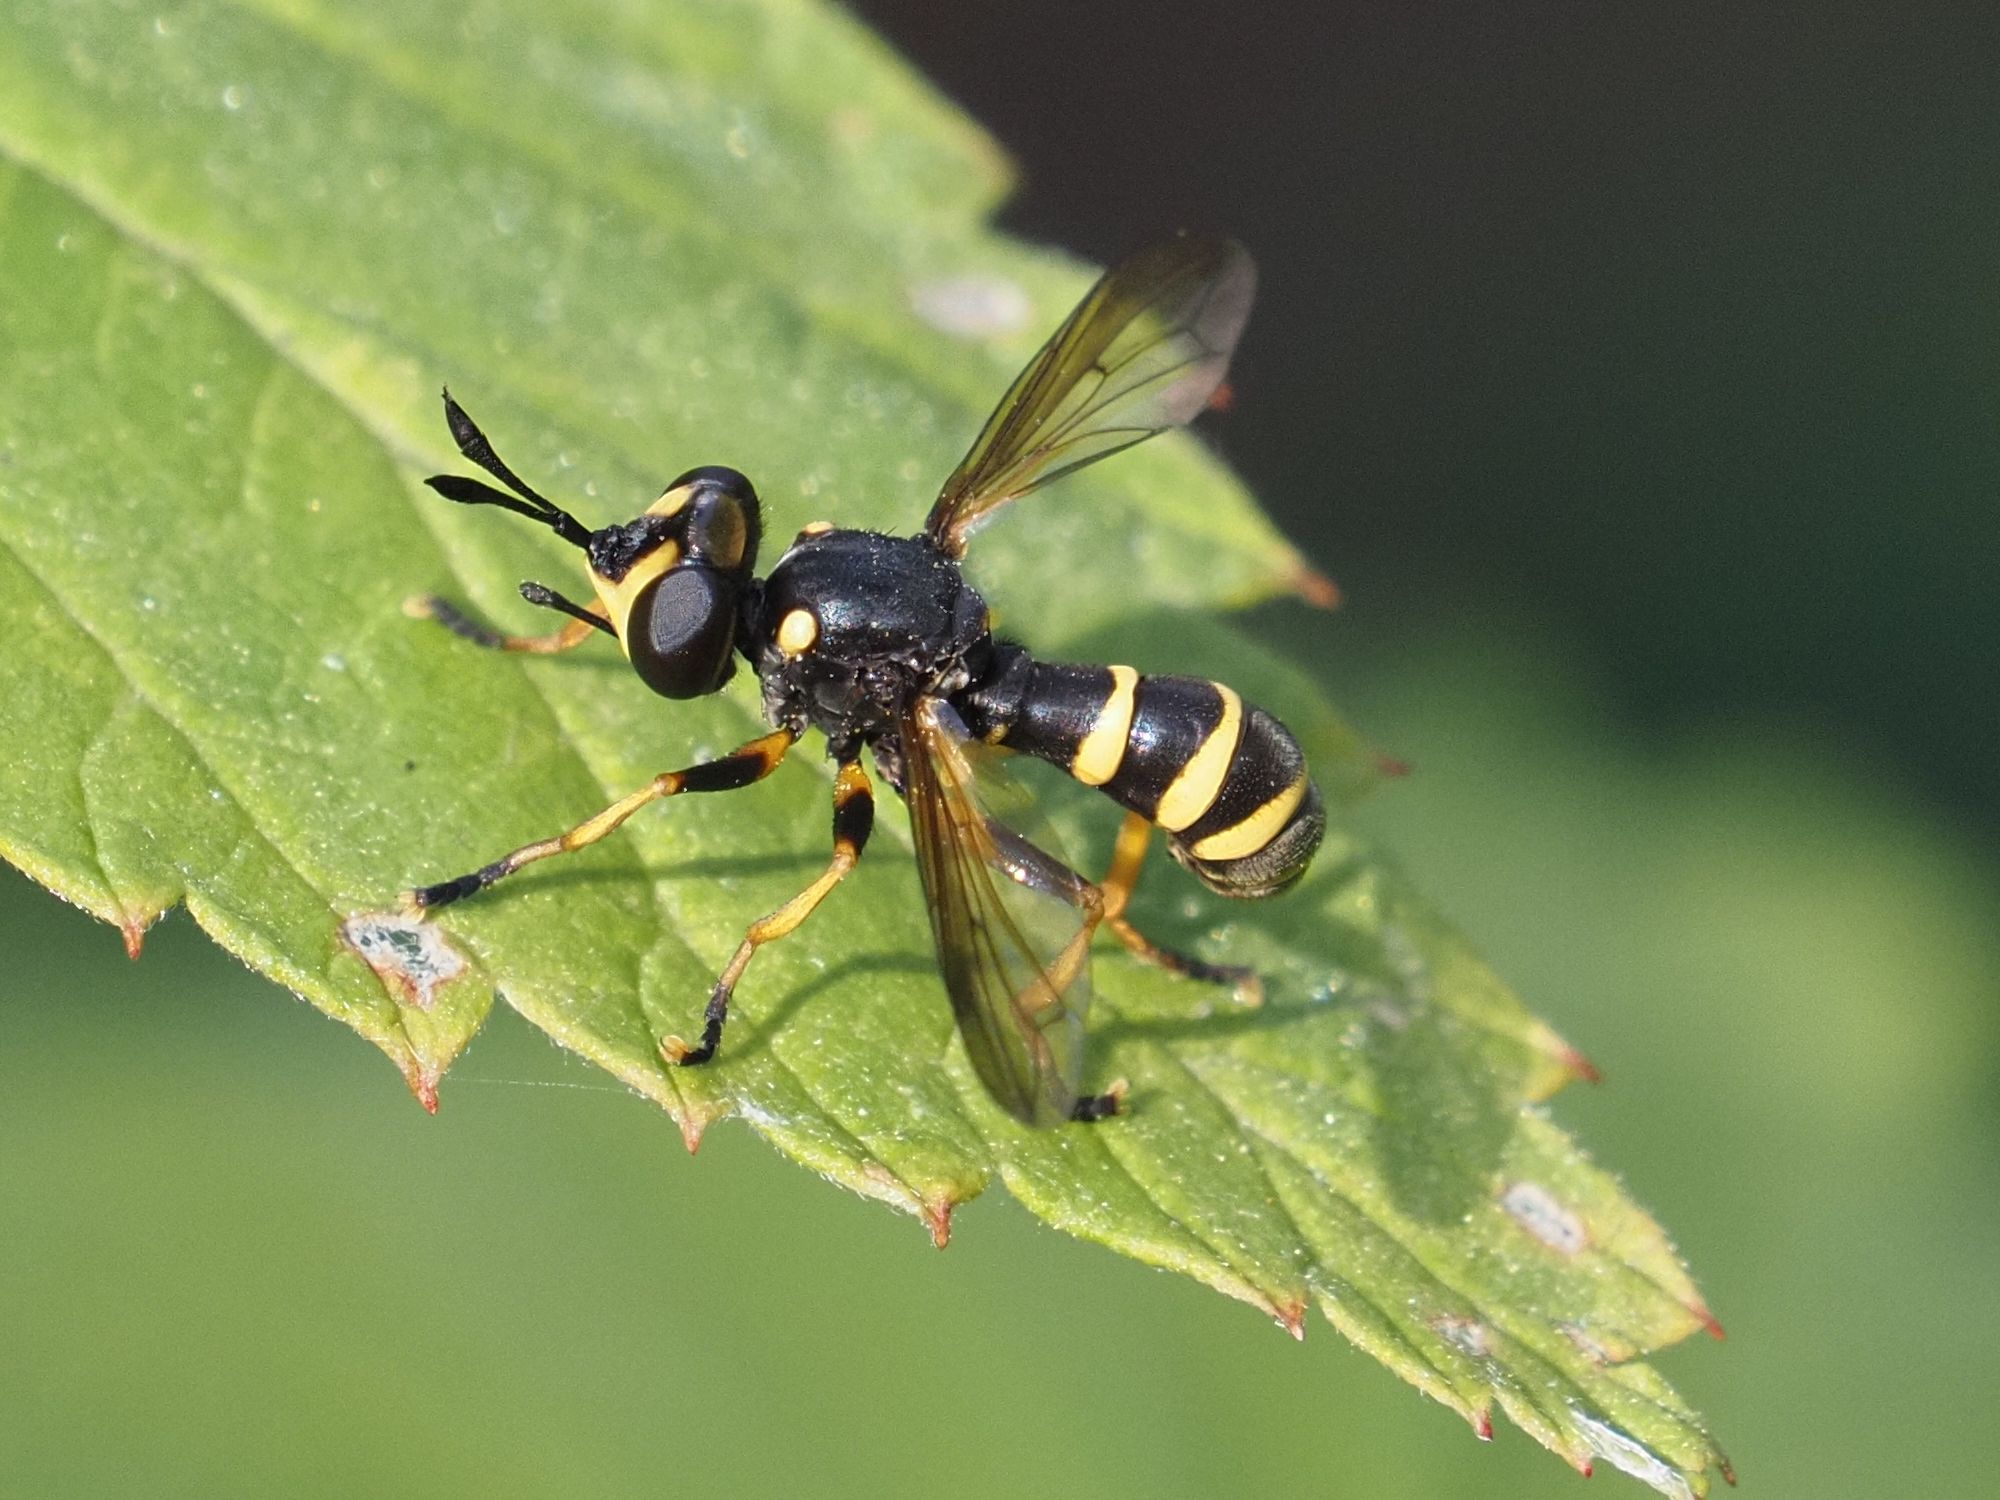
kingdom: Animalia
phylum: Arthropoda
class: Insecta
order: Diptera
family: Conopidae
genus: Conops
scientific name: Conops flavipes
